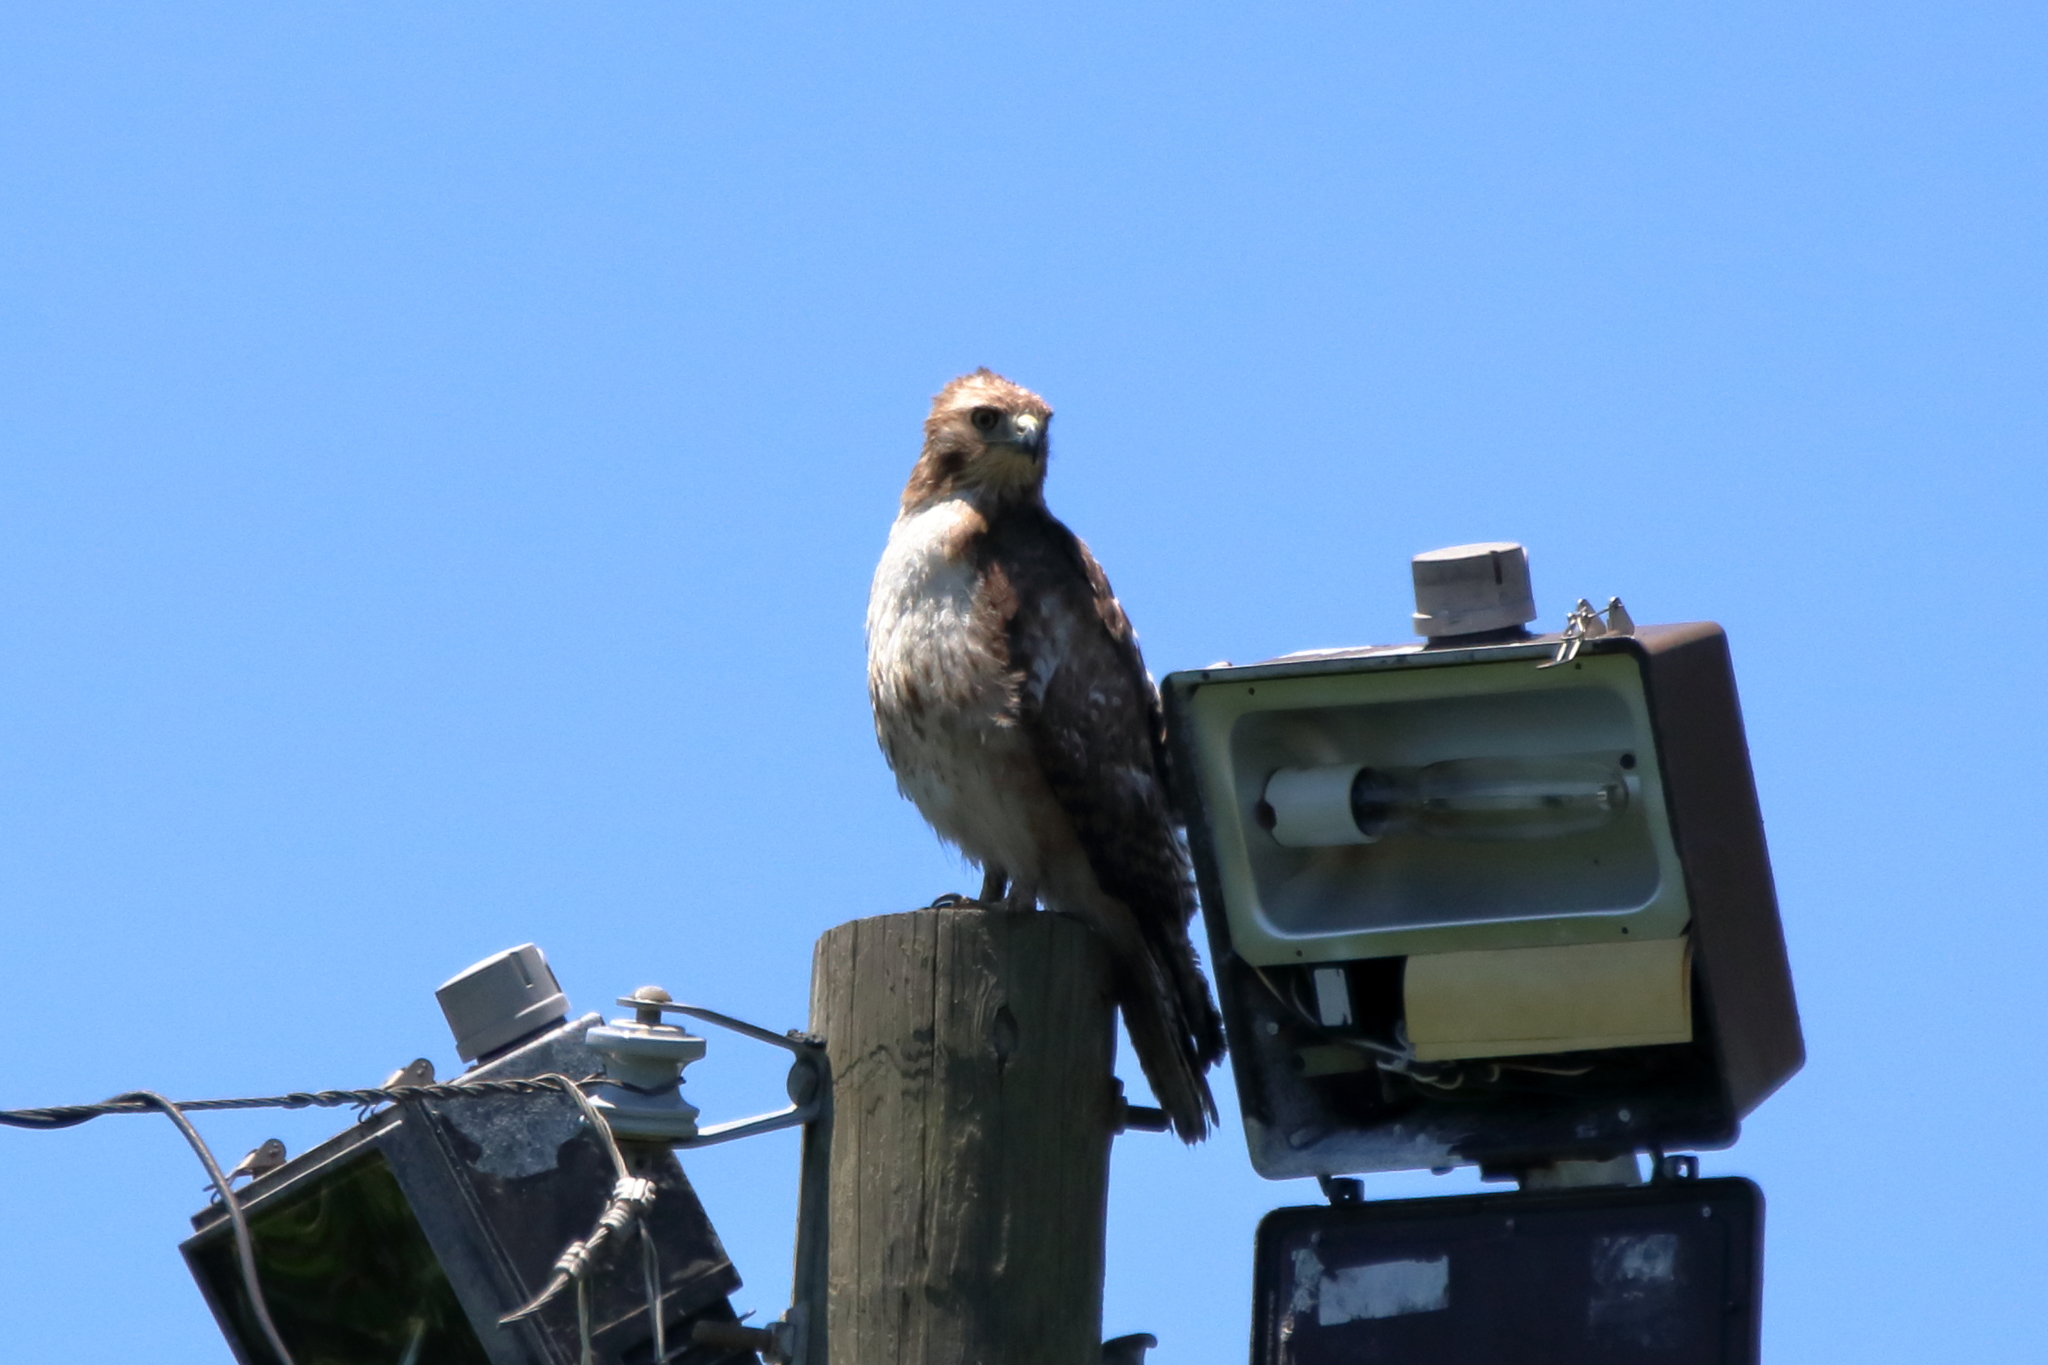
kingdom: Animalia
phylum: Chordata
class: Aves
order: Accipitriformes
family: Accipitridae
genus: Buteo
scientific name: Buteo jamaicensis
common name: Red-tailed hawk
